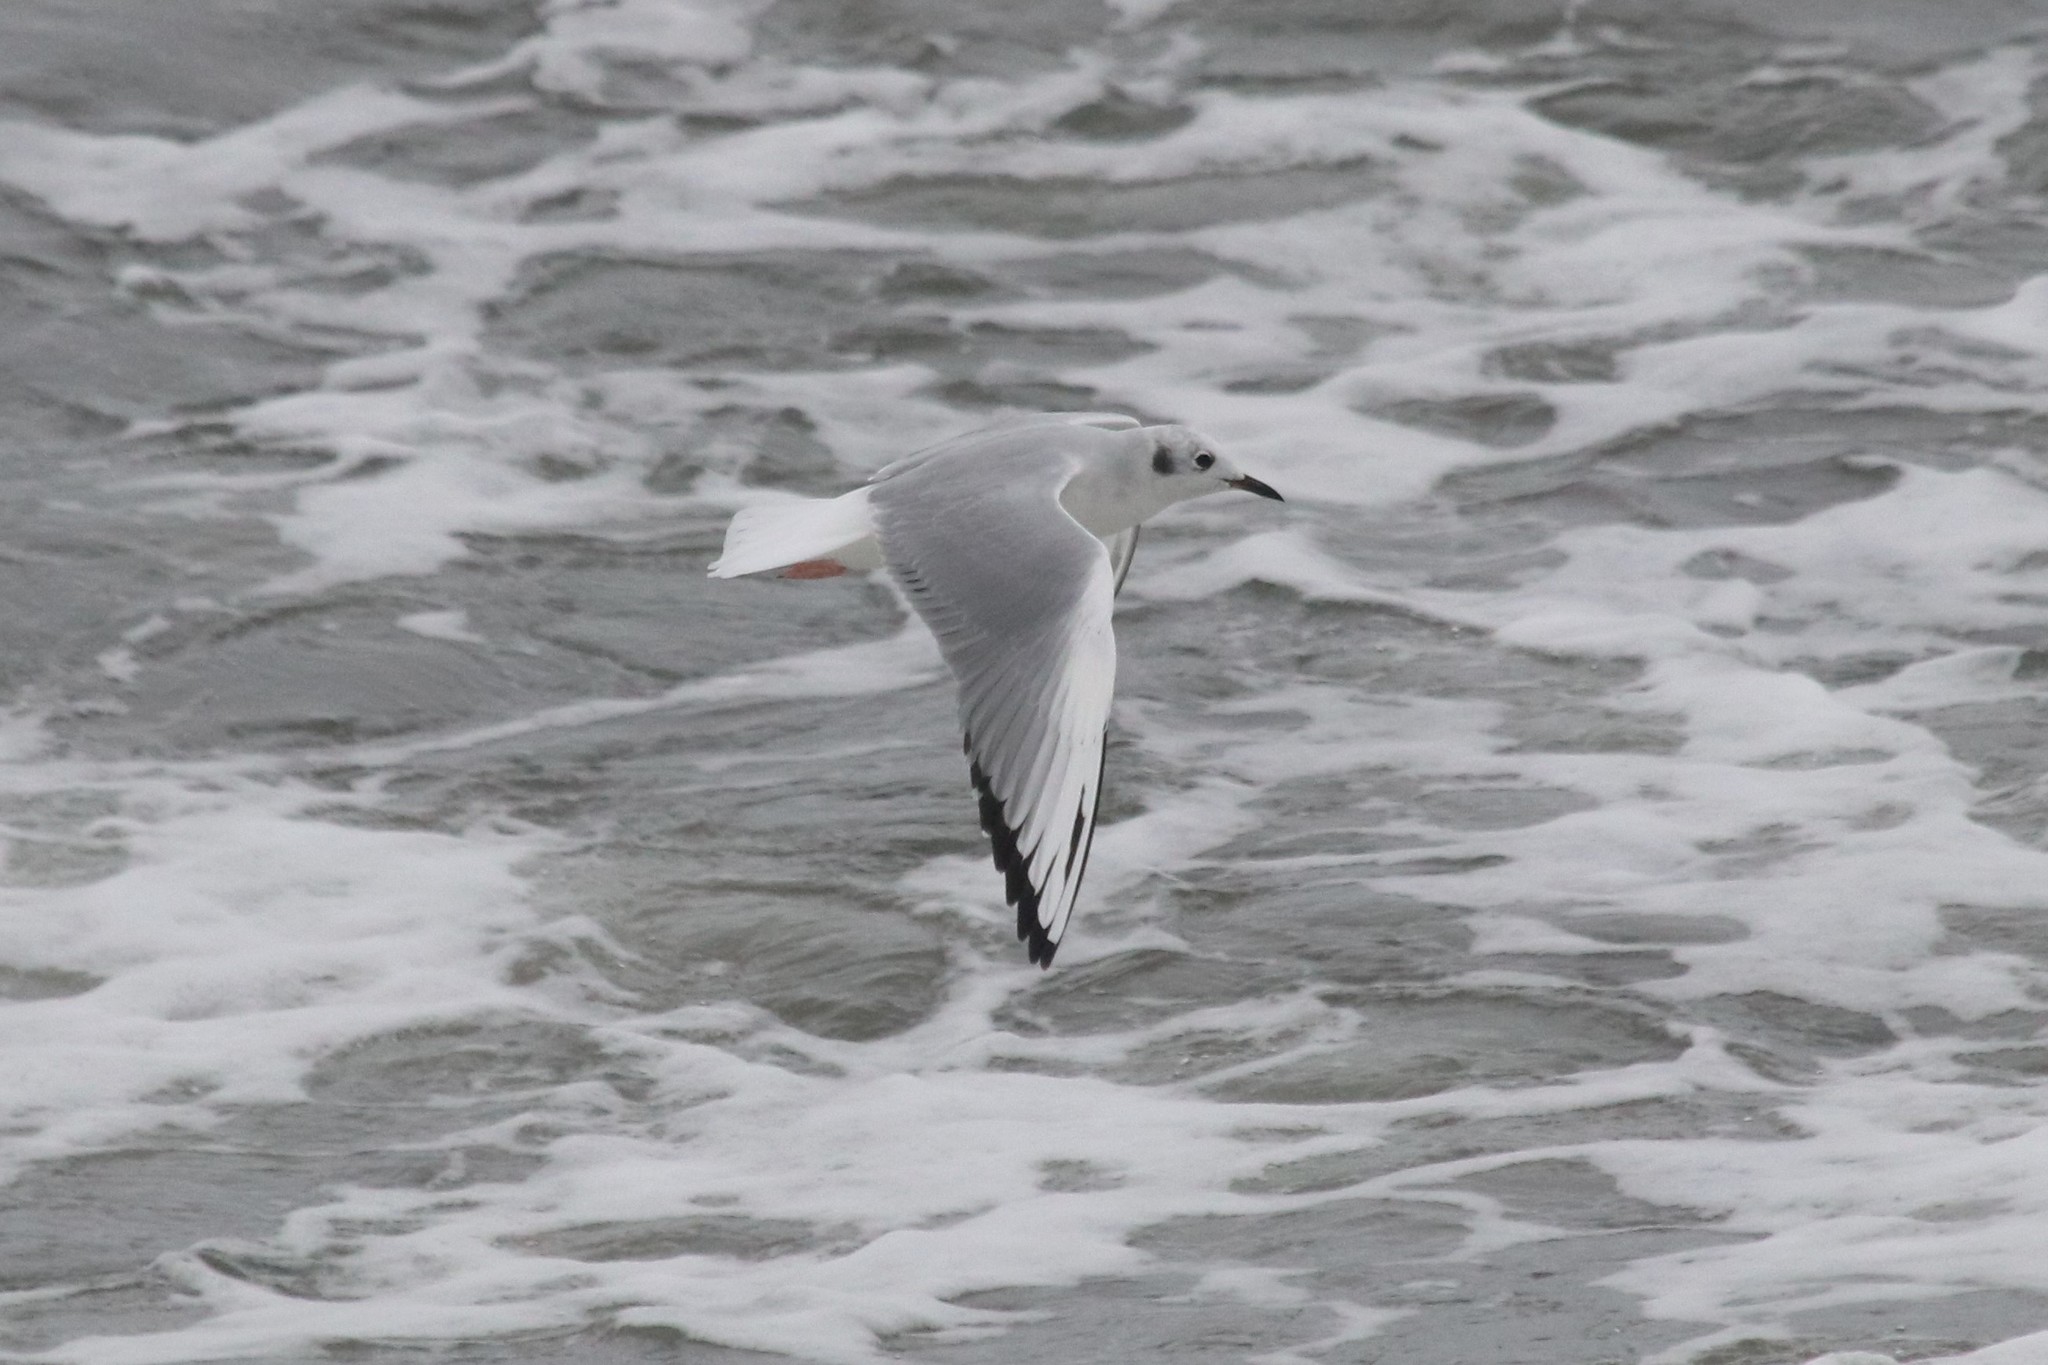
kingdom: Animalia
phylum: Chordata
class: Aves
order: Charadriiformes
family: Laridae
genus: Chroicocephalus
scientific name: Chroicocephalus philadelphia
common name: Bonaparte's gull
